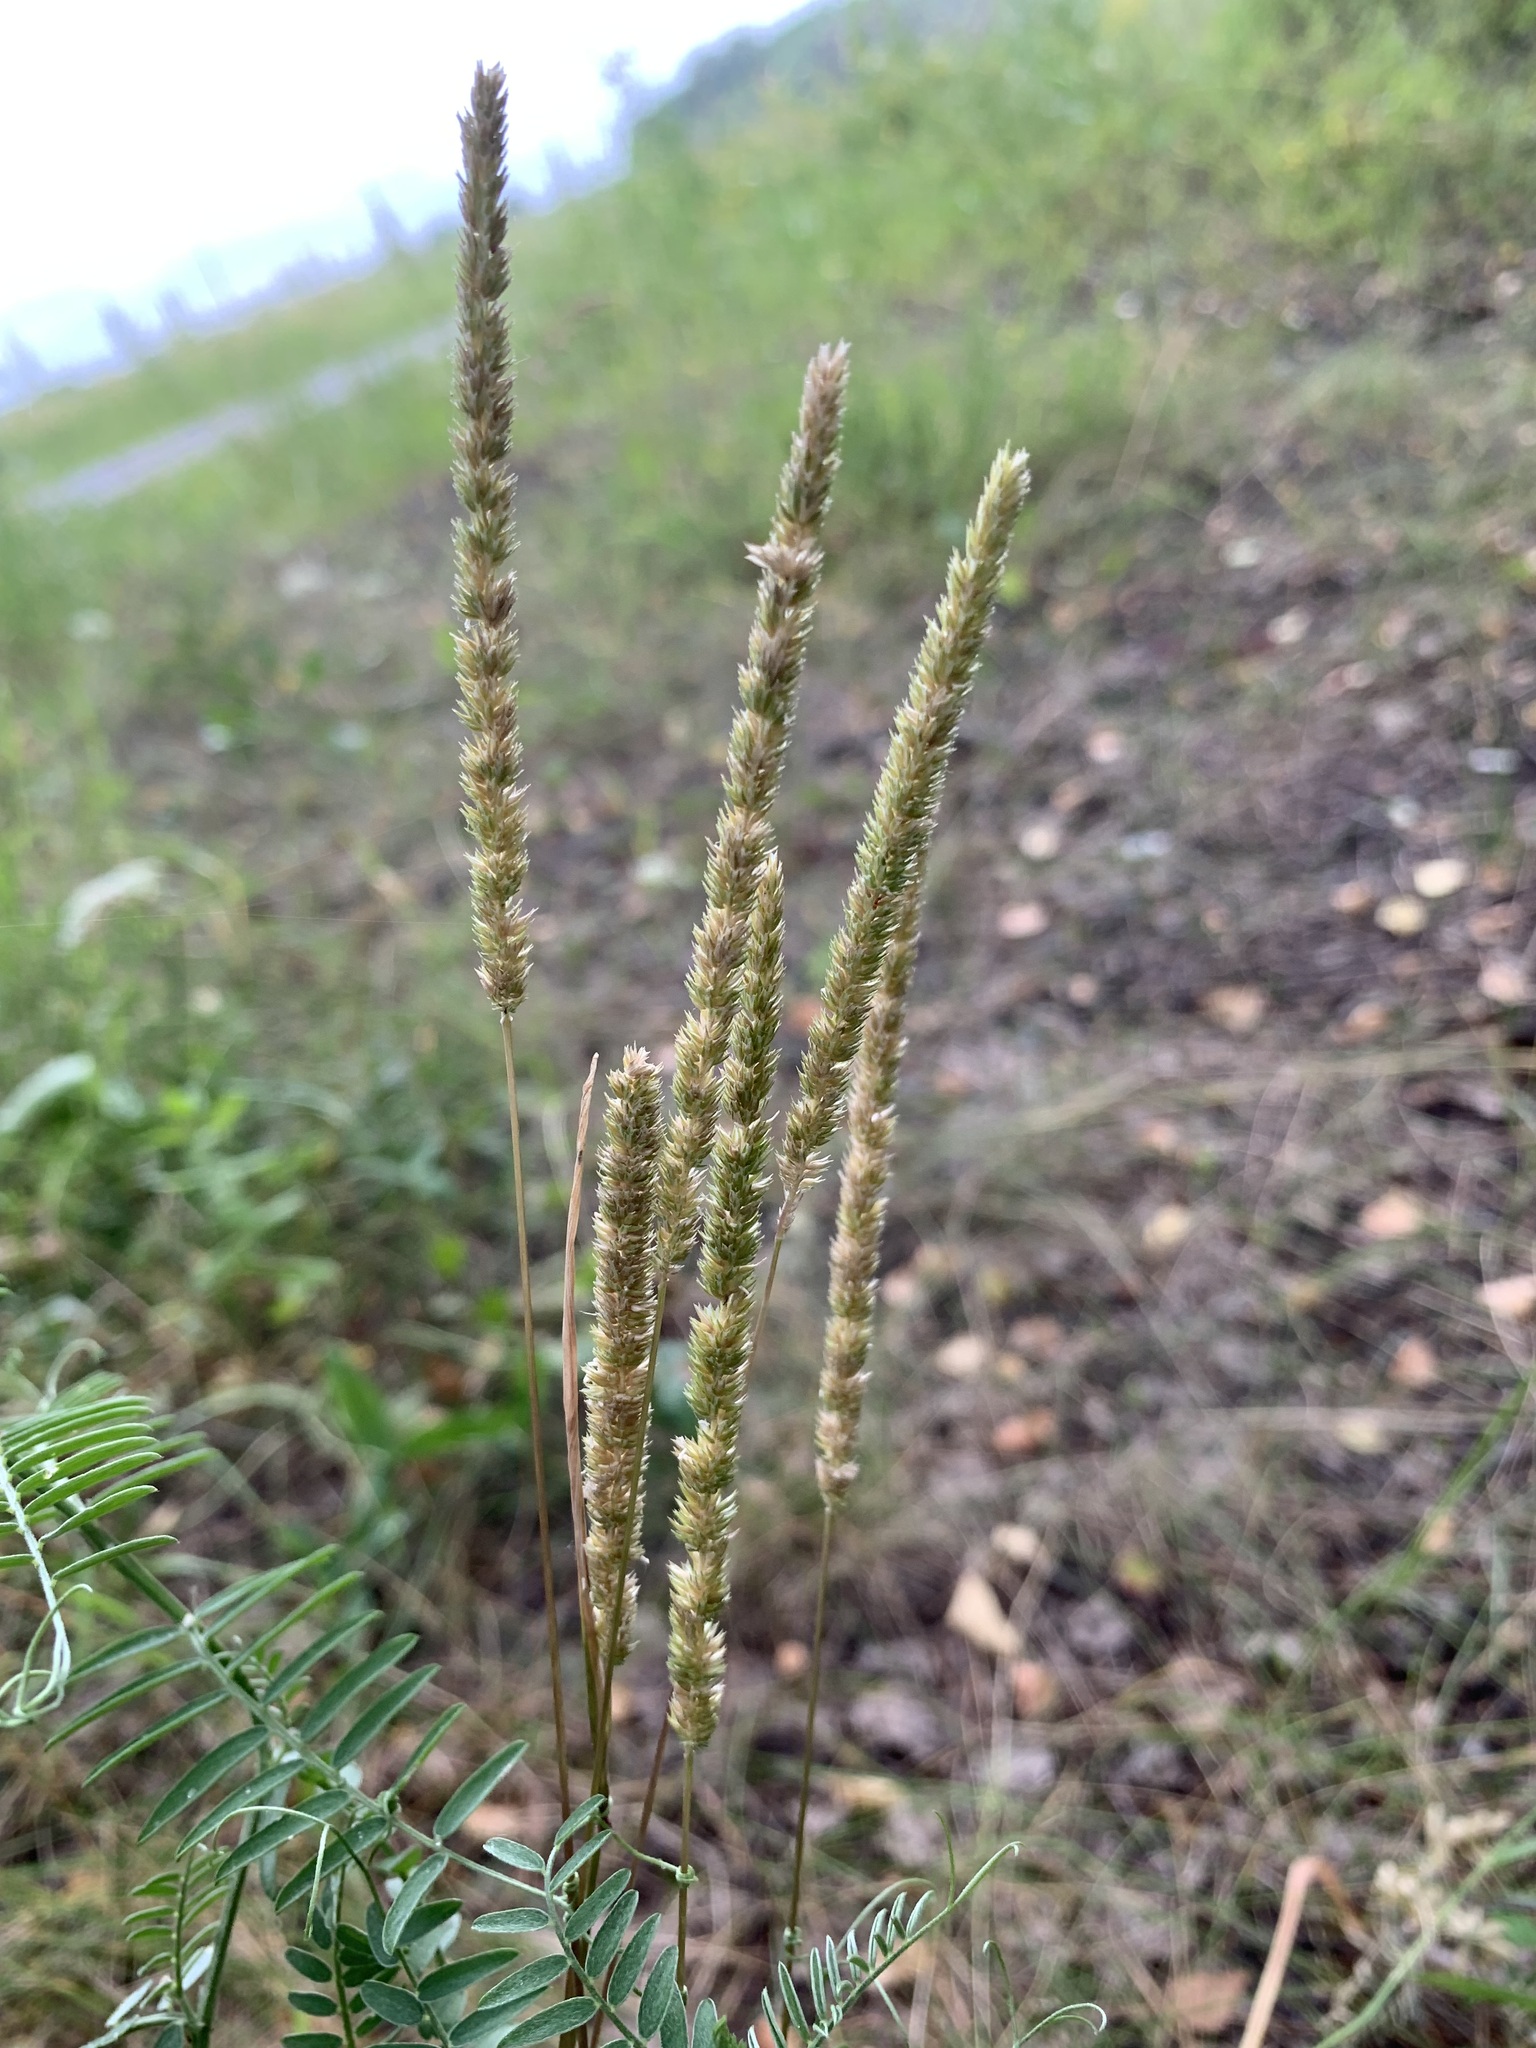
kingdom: Plantae
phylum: Tracheophyta
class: Liliopsida
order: Poales
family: Poaceae
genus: Phleum
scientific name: Phleum phleoides
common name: Purple-stem cat's-tail
